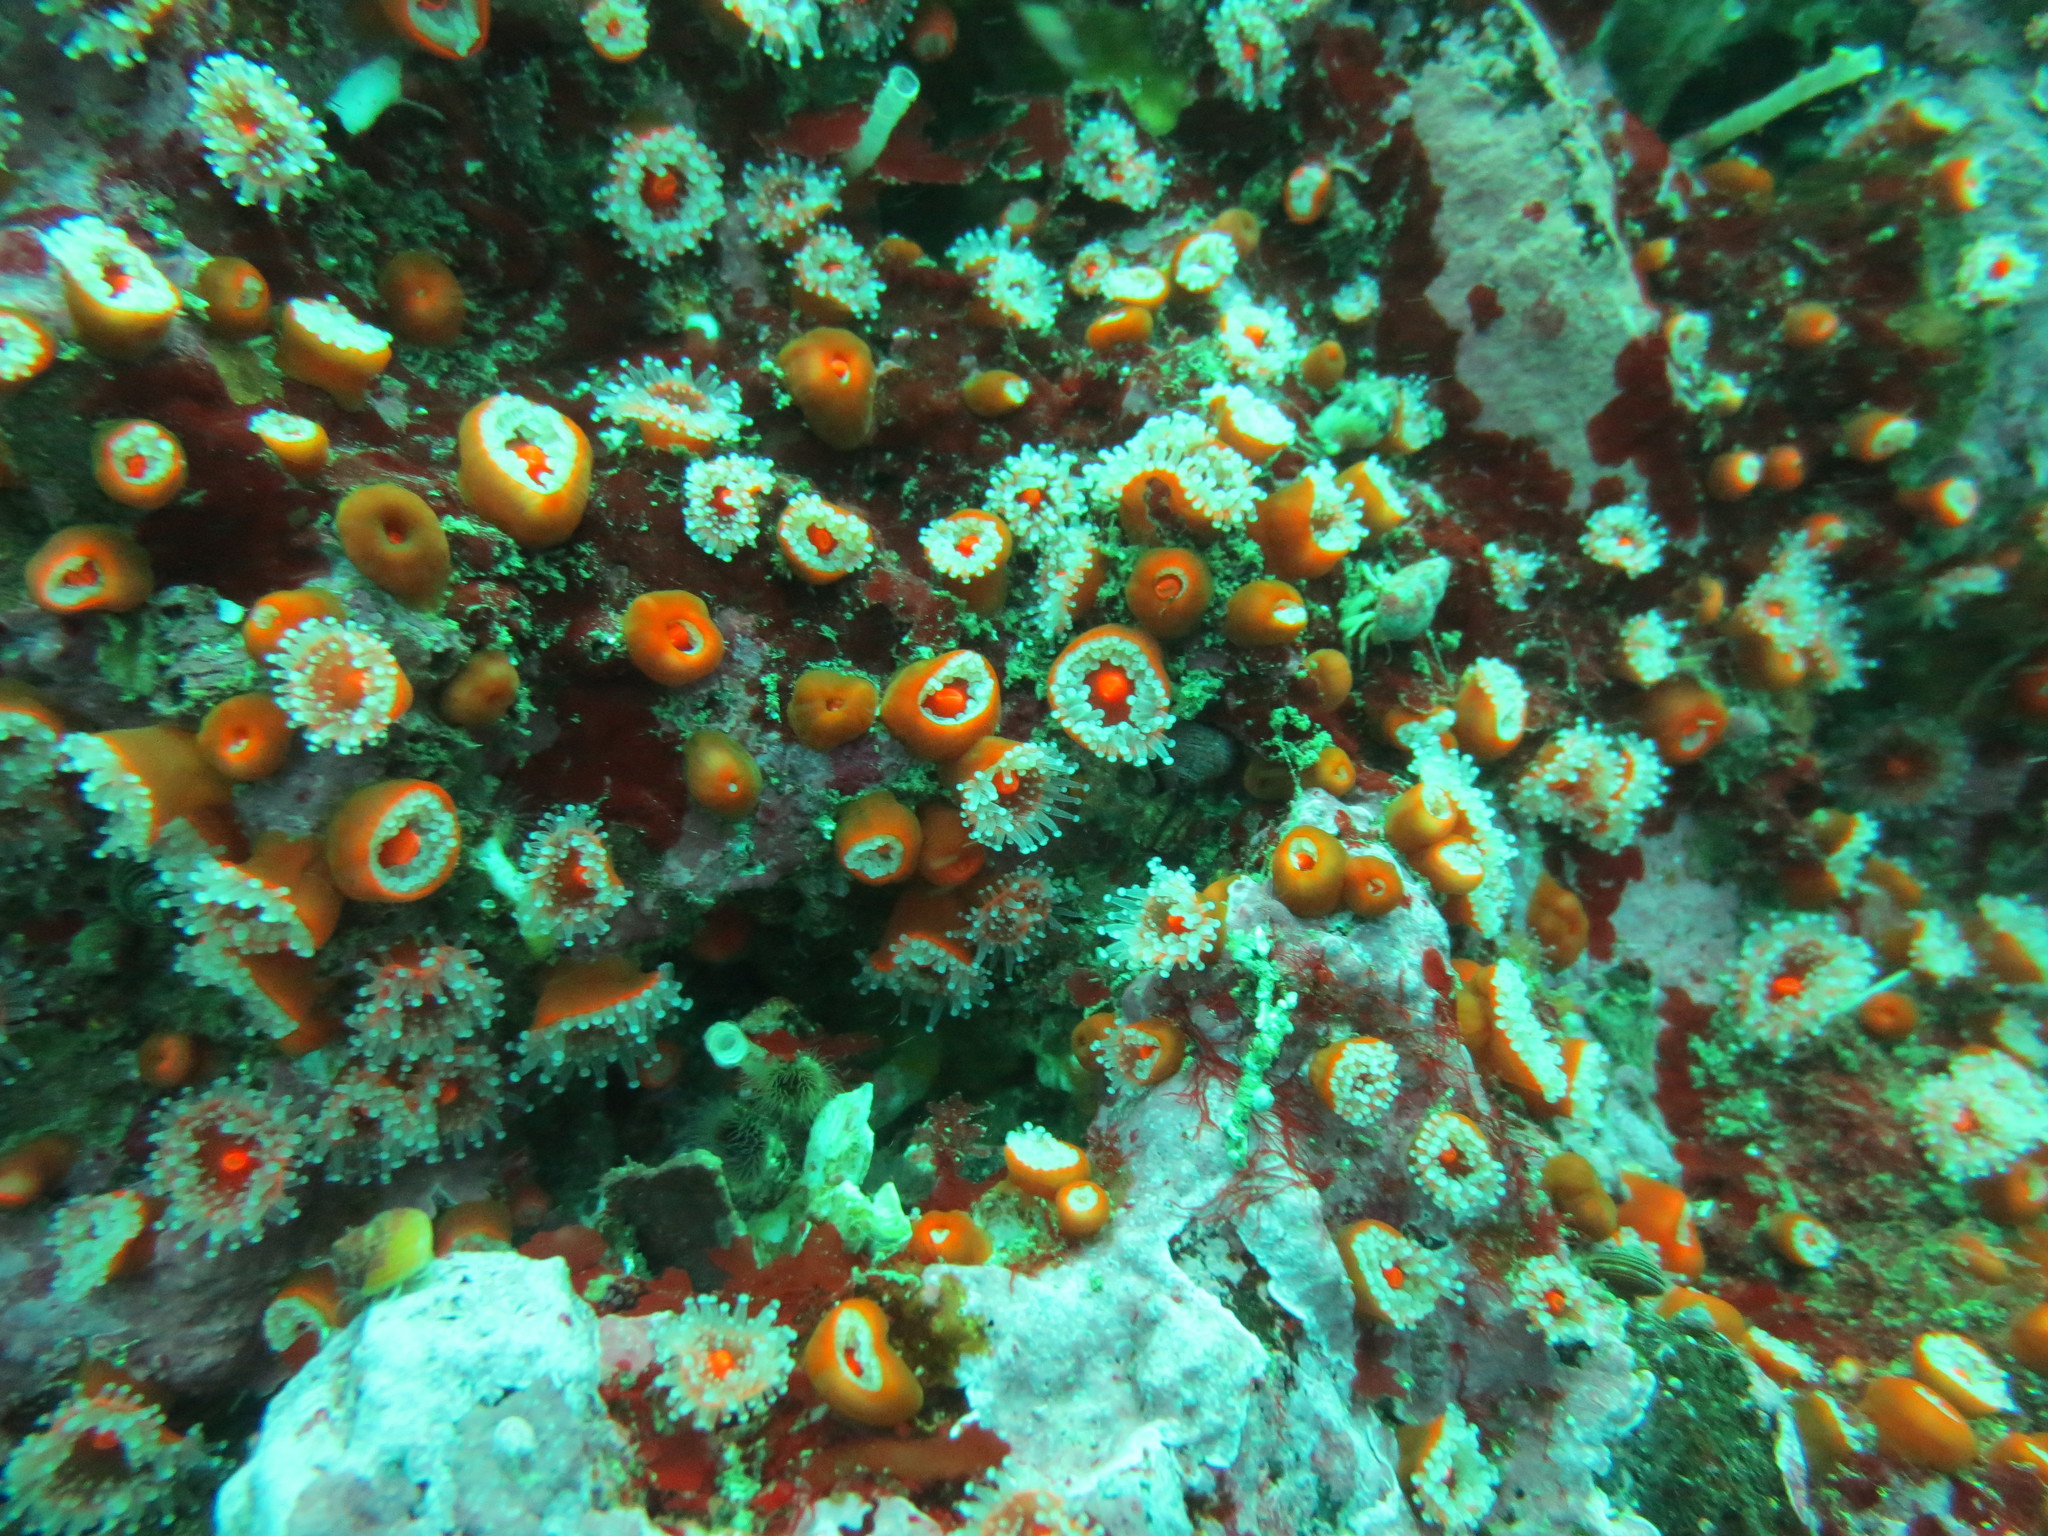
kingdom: Animalia
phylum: Cnidaria
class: Anthozoa
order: Corallimorpharia
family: Corallimorphidae
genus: Corynactis
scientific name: Corynactis californica
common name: Strawberry corallimorpharian
